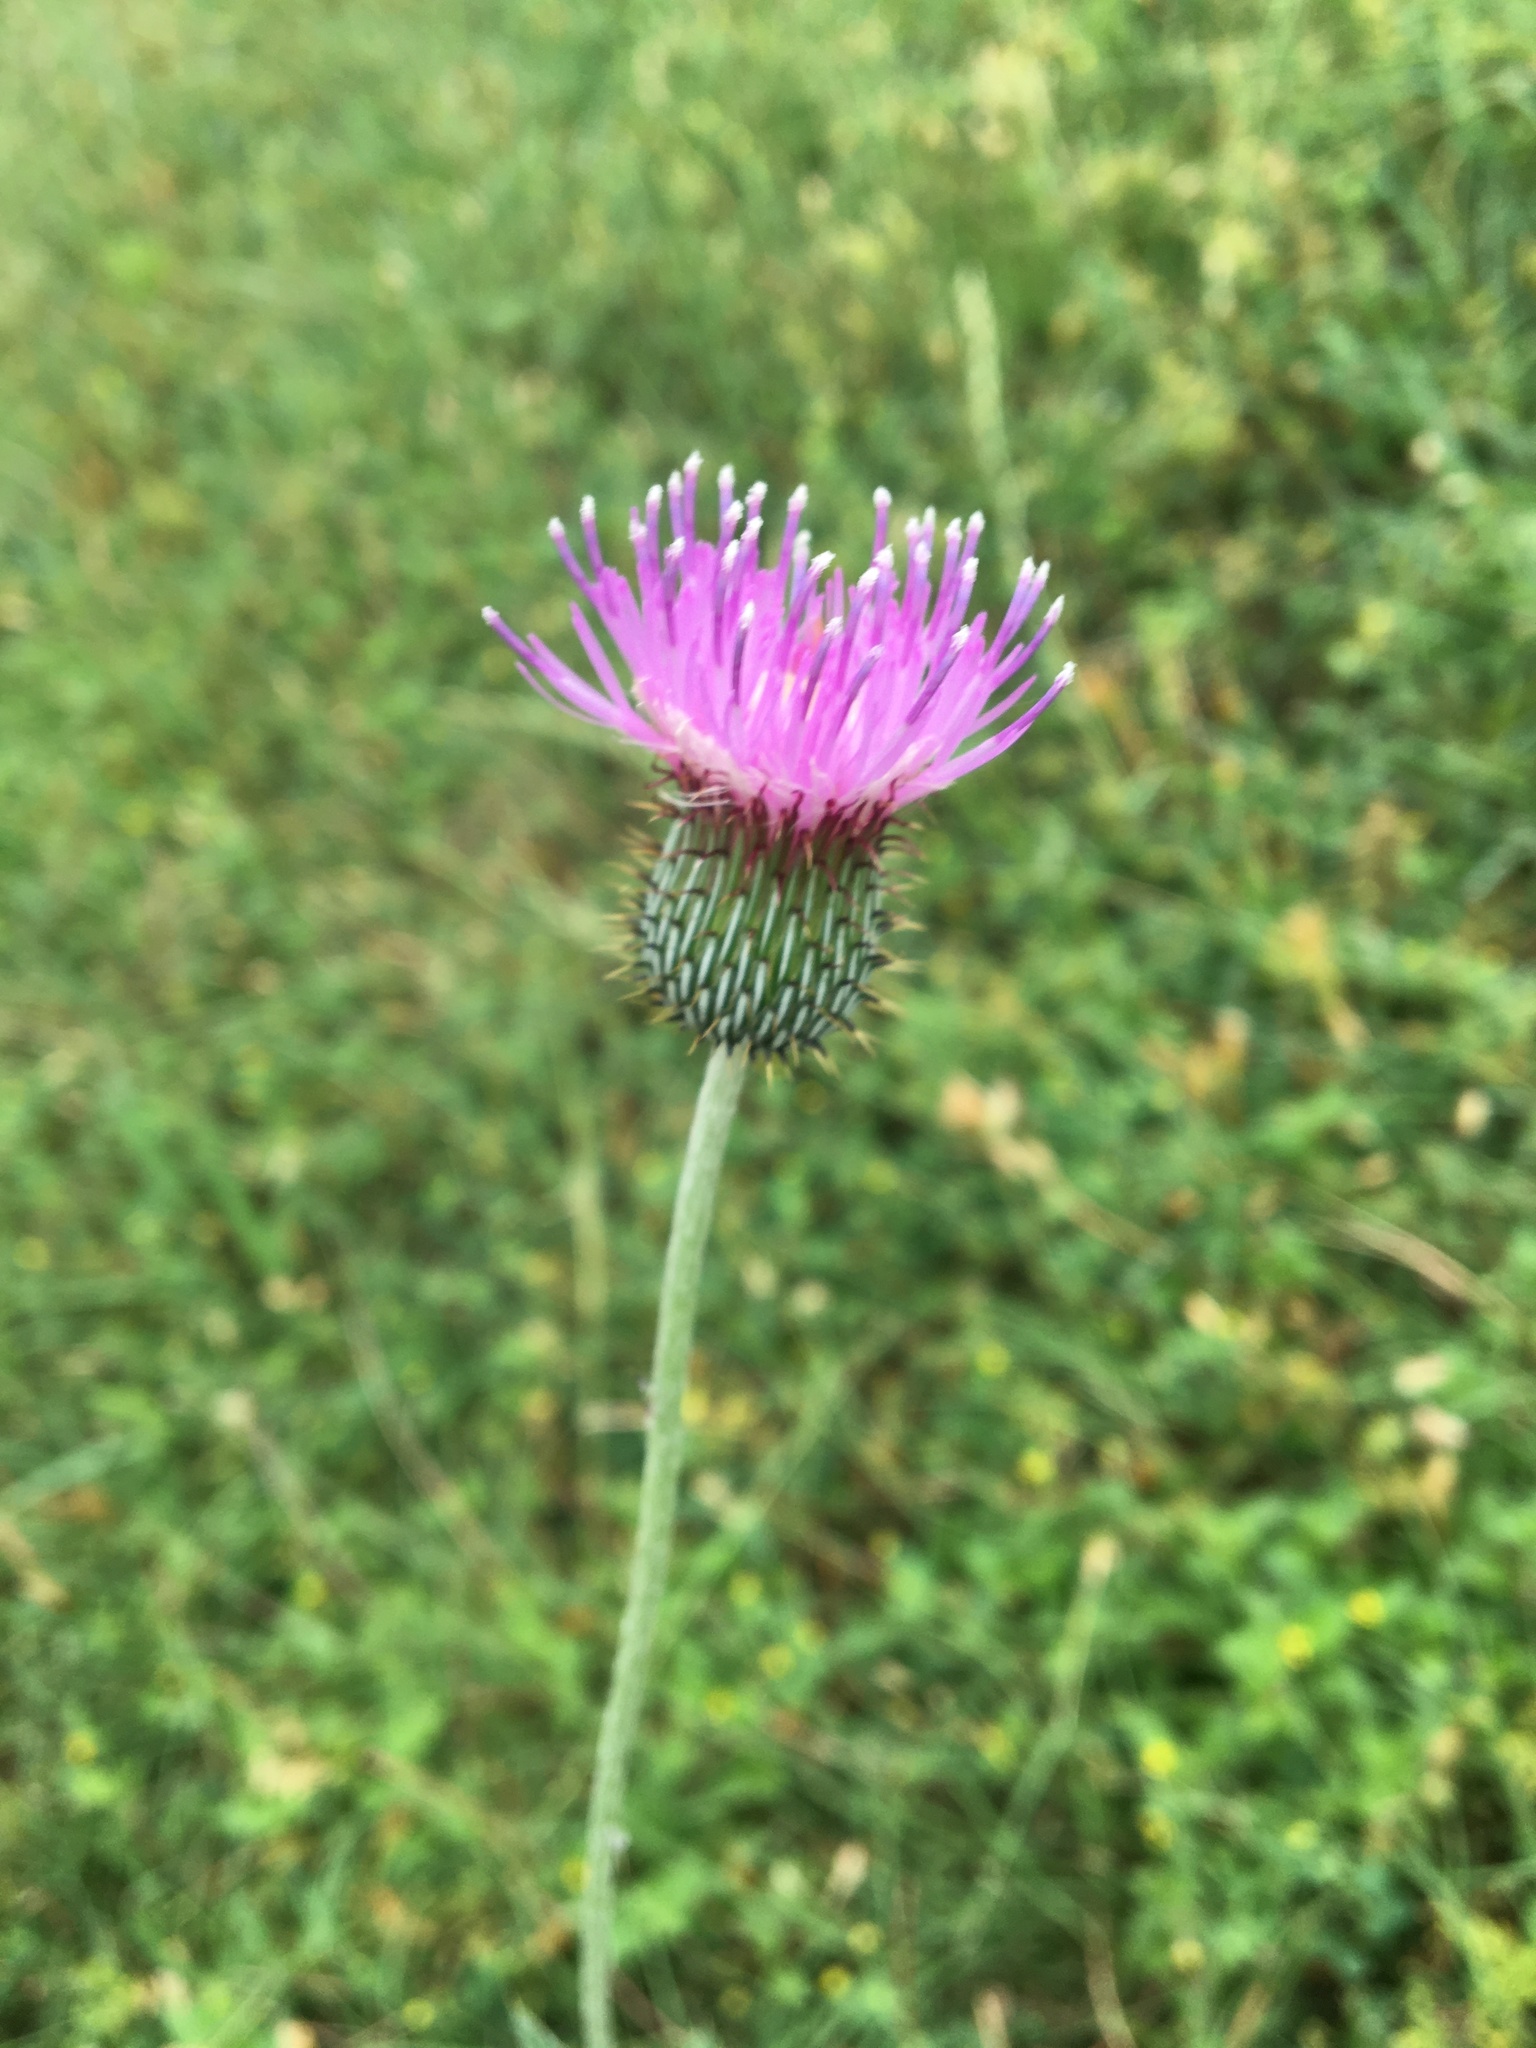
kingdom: Plantae
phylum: Tracheophyta
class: Magnoliopsida
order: Asterales
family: Asteraceae
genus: Cirsium
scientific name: Cirsium texanum
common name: Texas purple thistle
